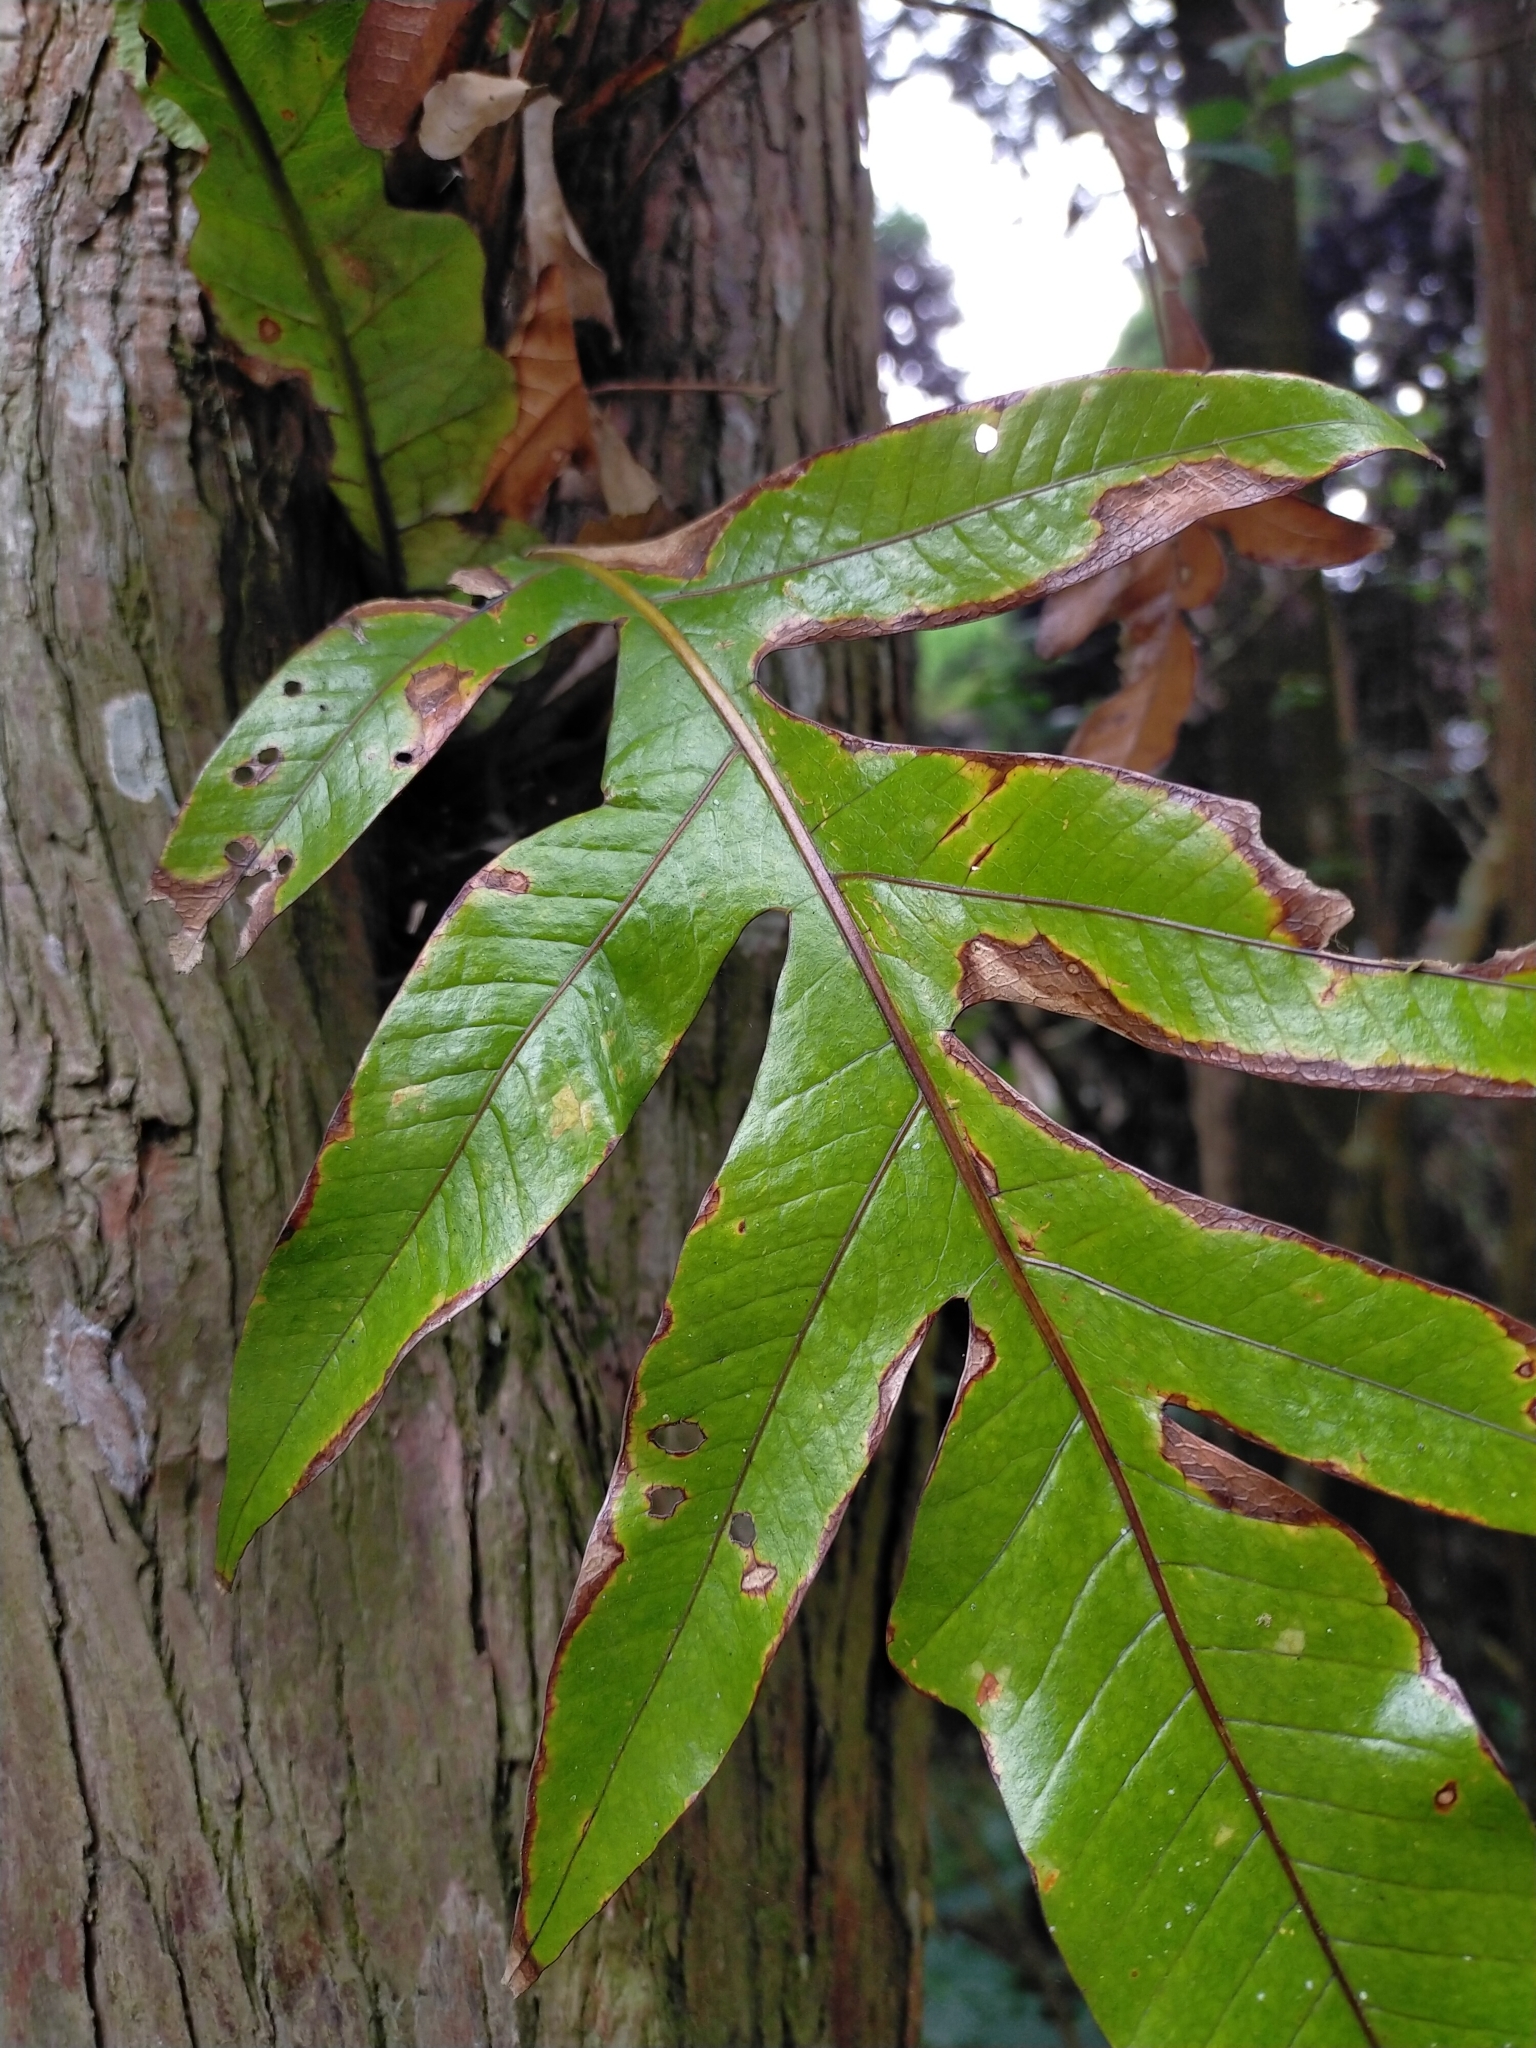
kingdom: Plantae
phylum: Tracheophyta
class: Polypodiopsida
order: Polypodiales
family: Polypodiaceae
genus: Drynaria
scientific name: Drynaria coronans
